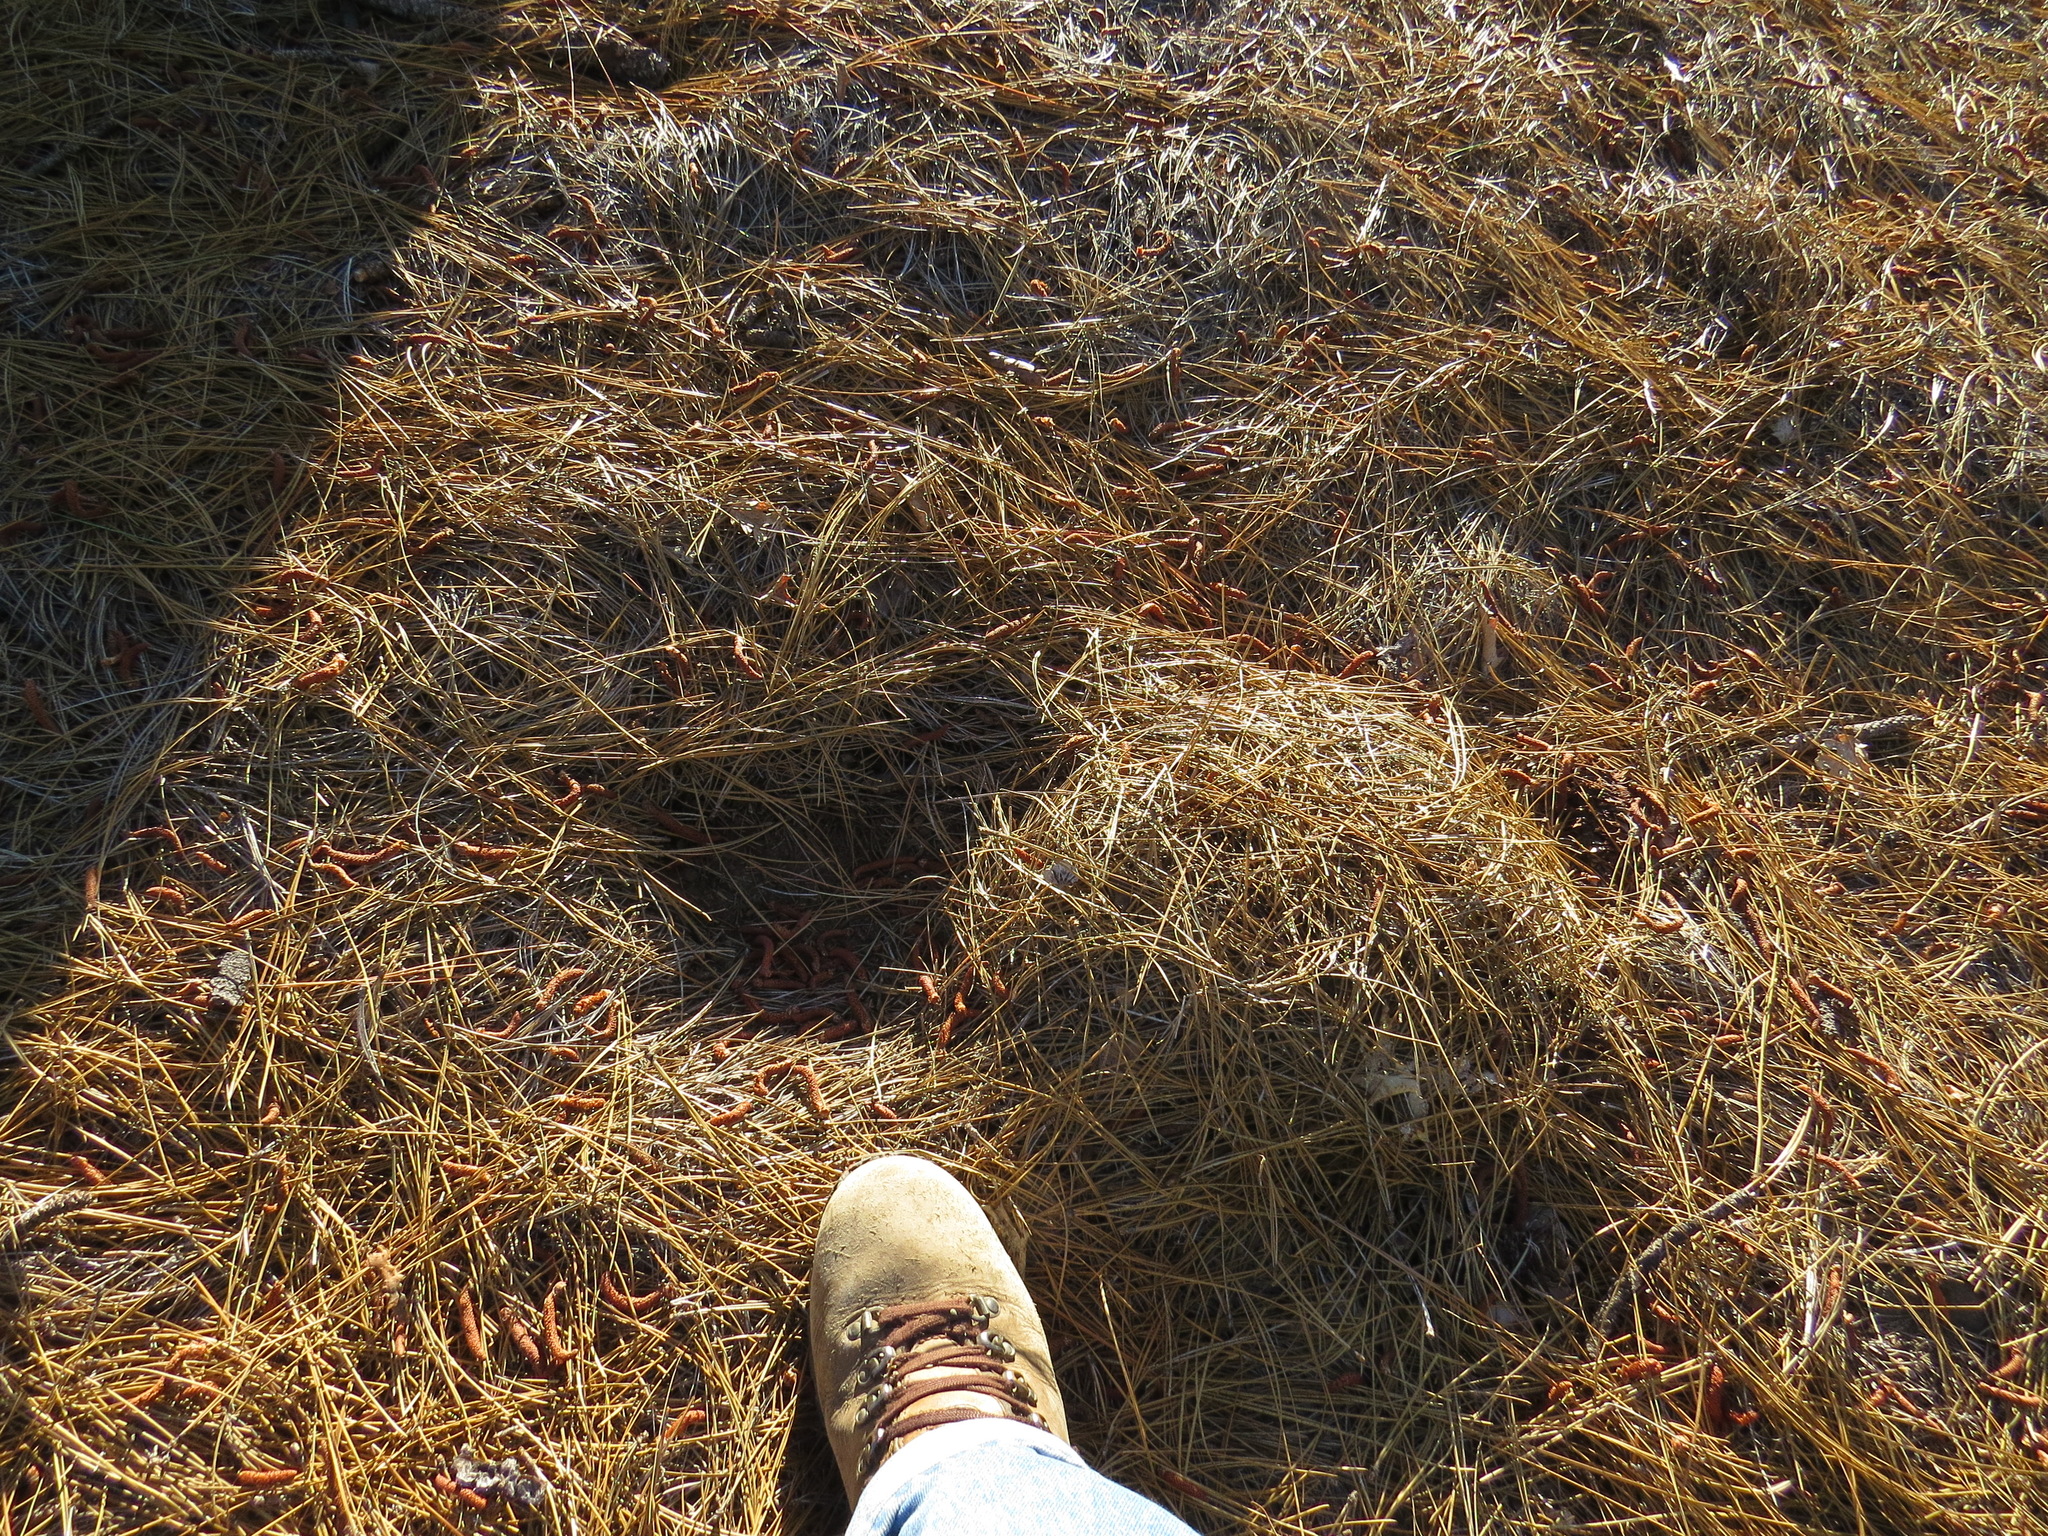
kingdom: Animalia
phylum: Chordata
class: Mammalia
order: Carnivora
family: Felidae
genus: Puma
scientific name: Puma concolor
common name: Puma
